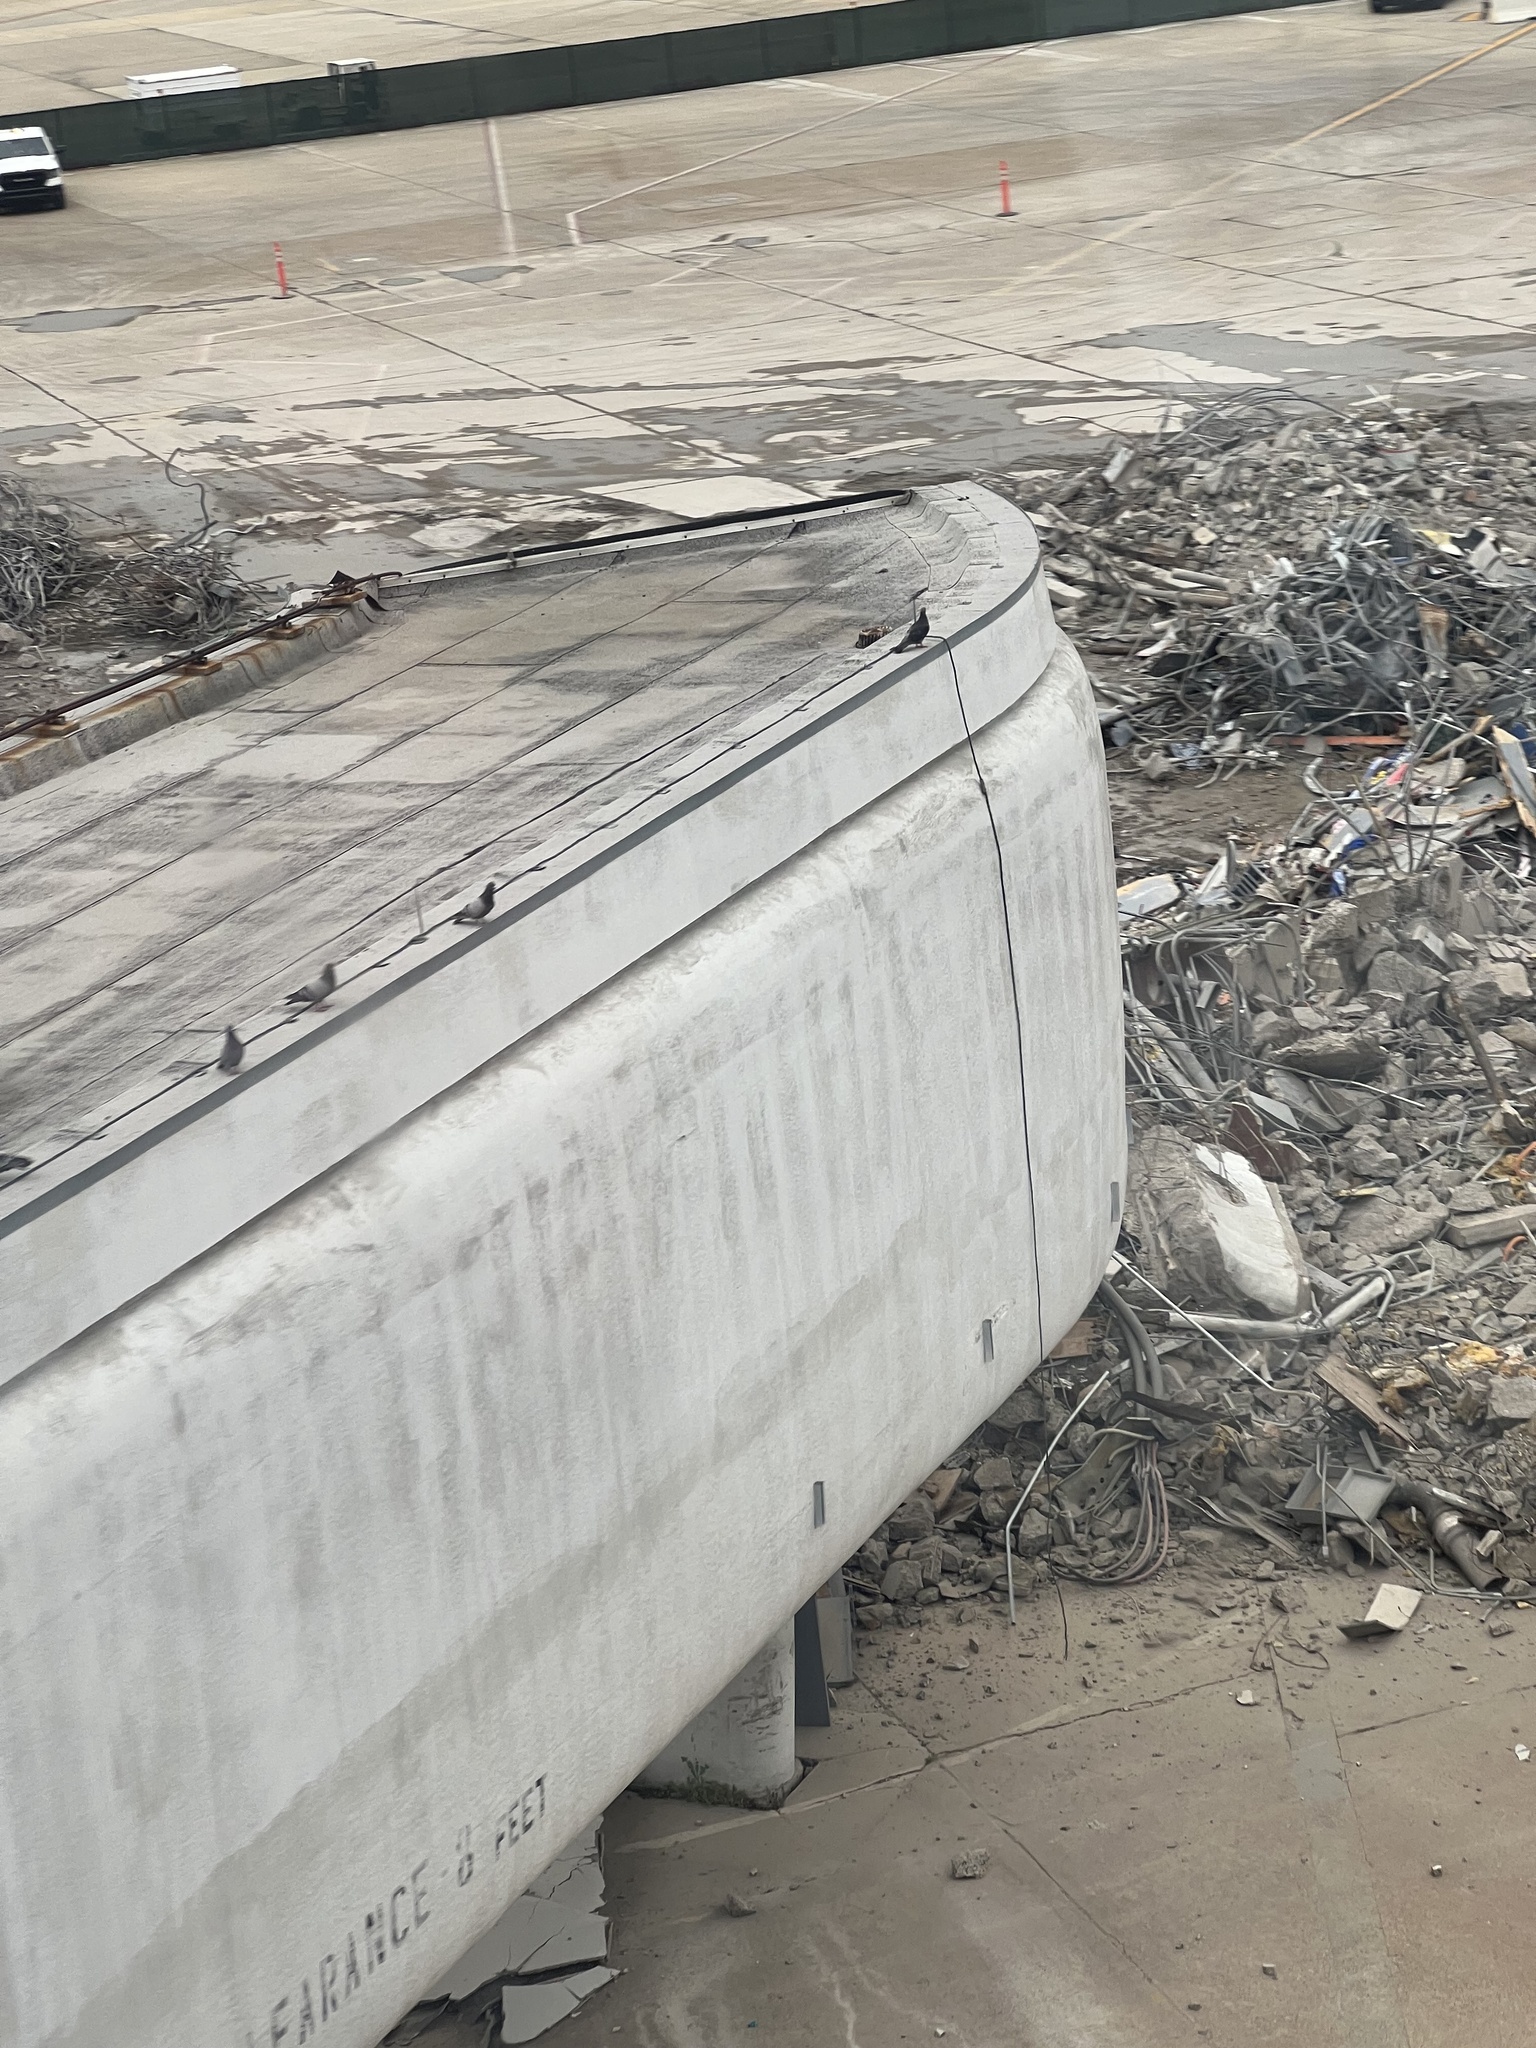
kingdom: Animalia
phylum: Chordata
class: Aves
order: Columbiformes
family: Columbidae
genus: Columba
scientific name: Columba livia
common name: Rock pigeon
